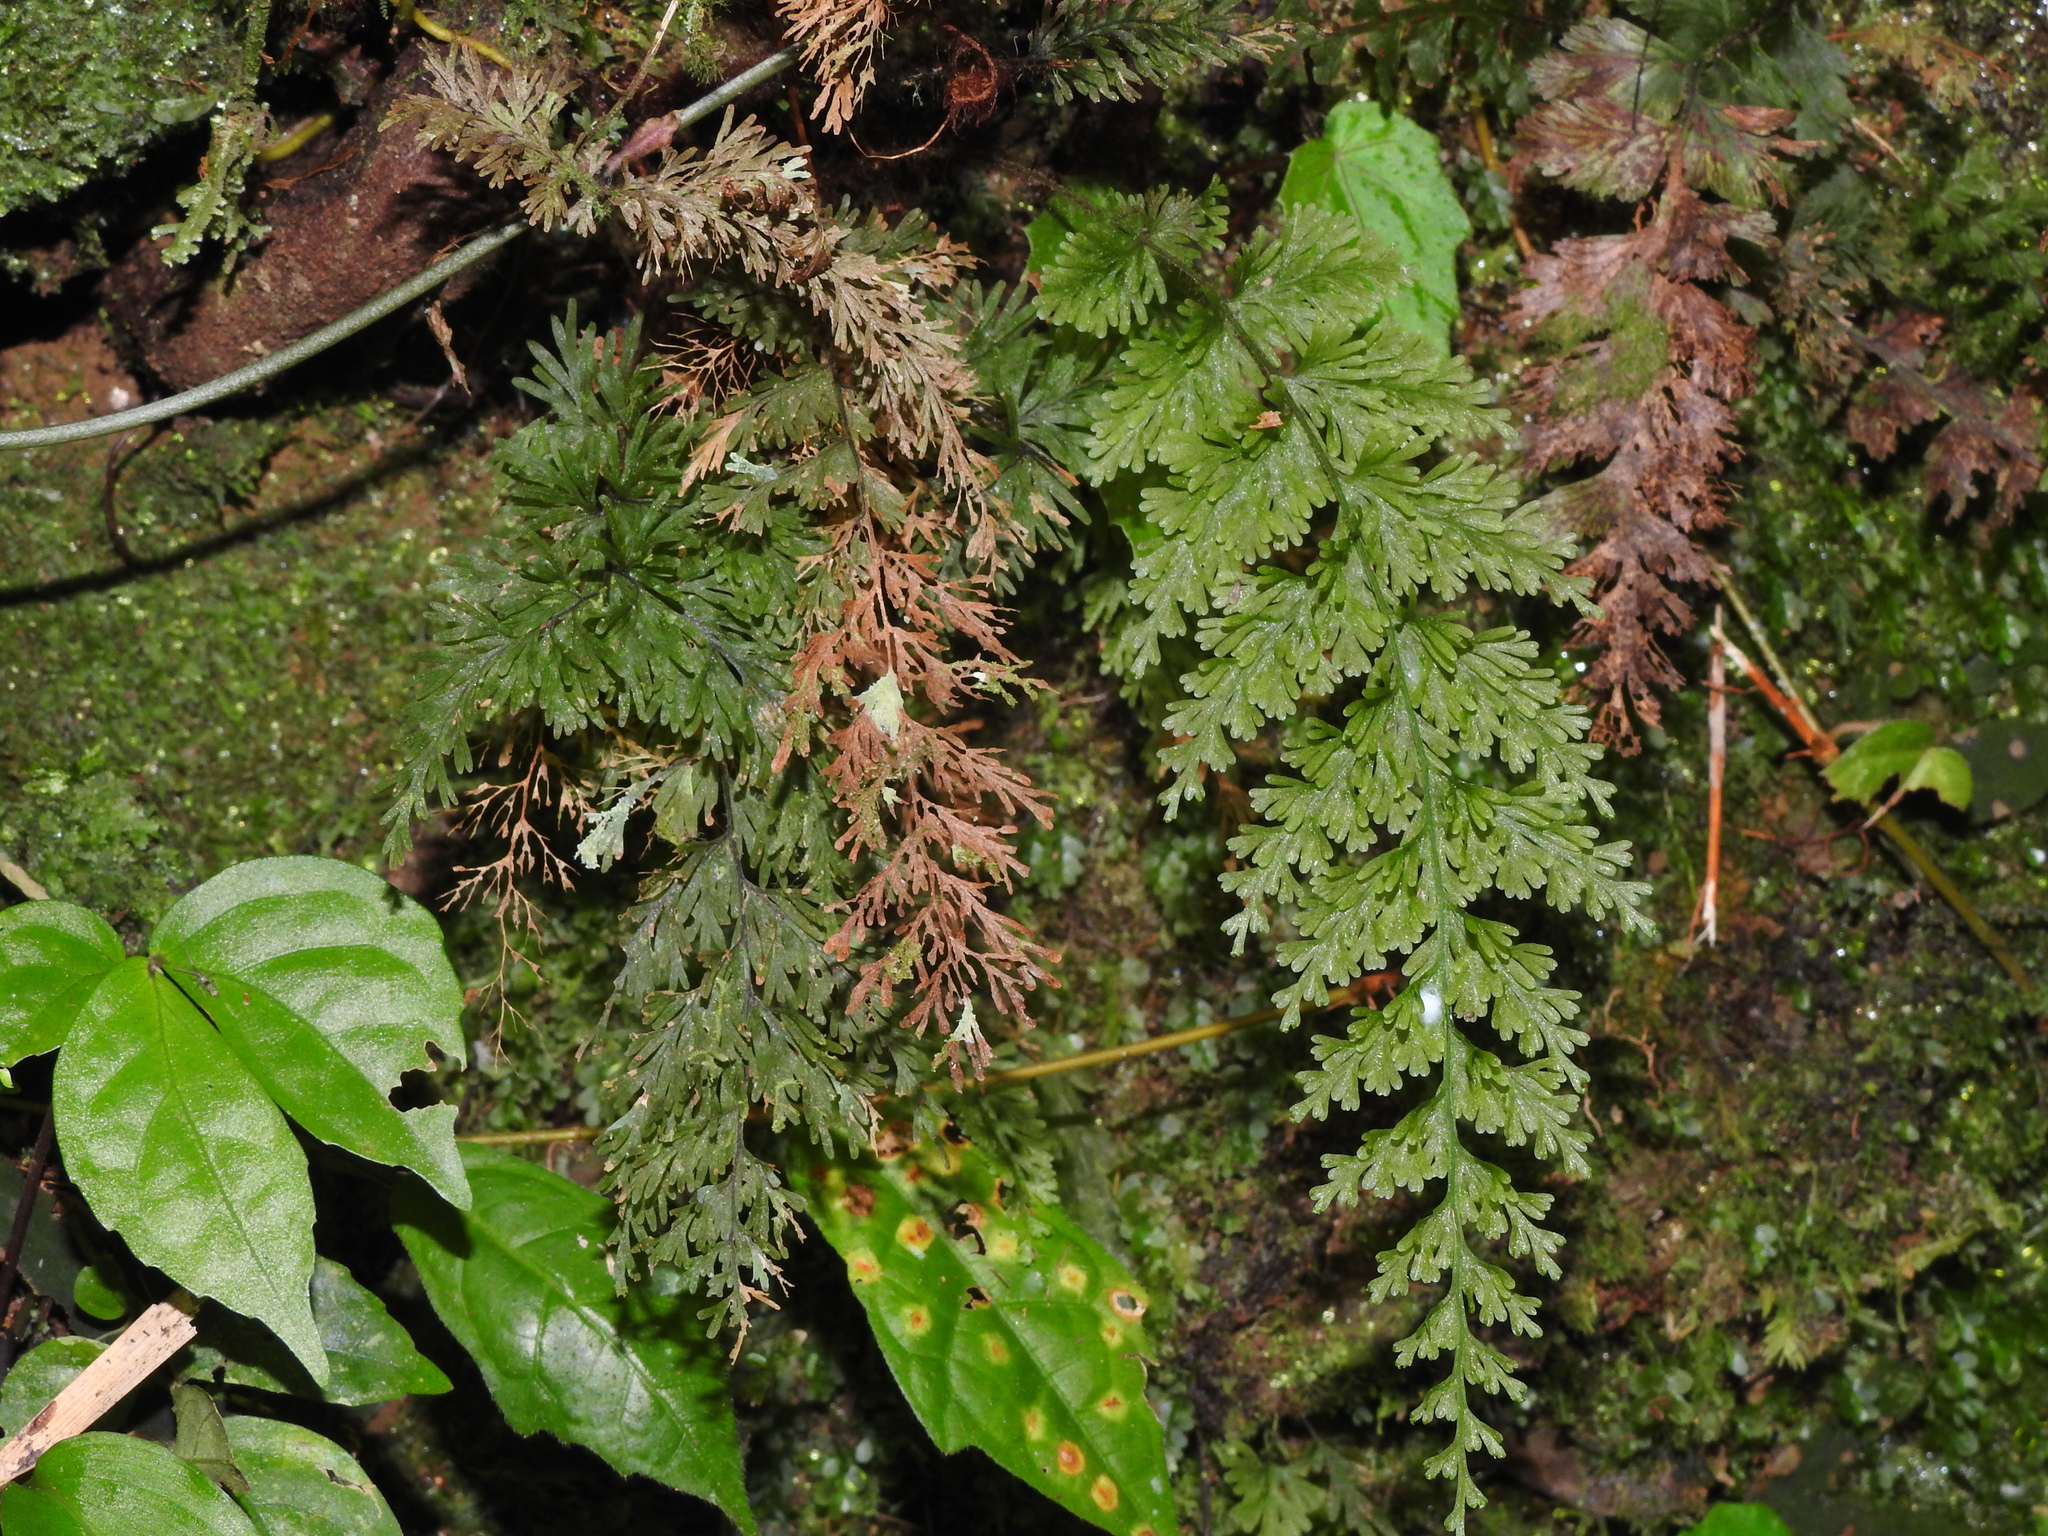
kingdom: Plantae
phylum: Tracheophyta
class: Polypodiopsida
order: Hymenophyllales
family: Hymenophyllaceae
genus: Callistopteris
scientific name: Callistopteris apiifolia
